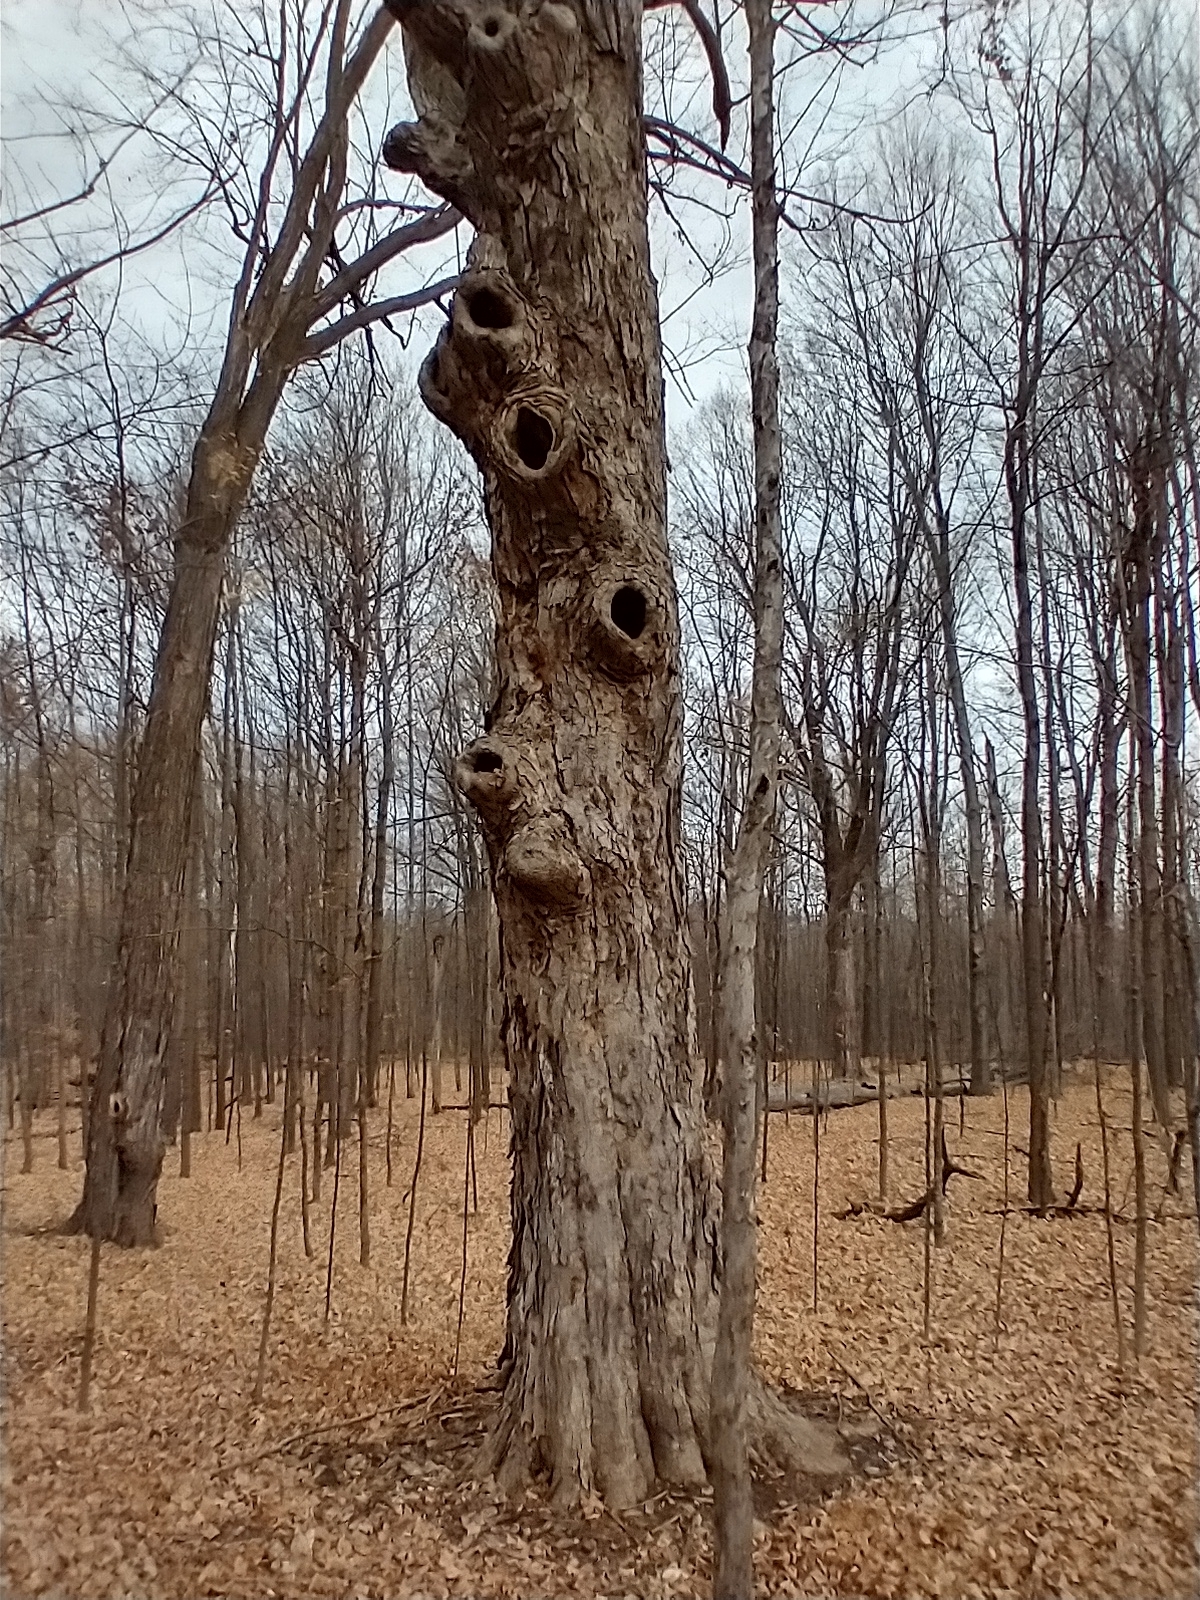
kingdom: Plantae
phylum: Tracheophyta
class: Magnoliopsida
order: Sapindales
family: Sapindaceae
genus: Acer
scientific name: Acer saccharum
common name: Sugar maple
